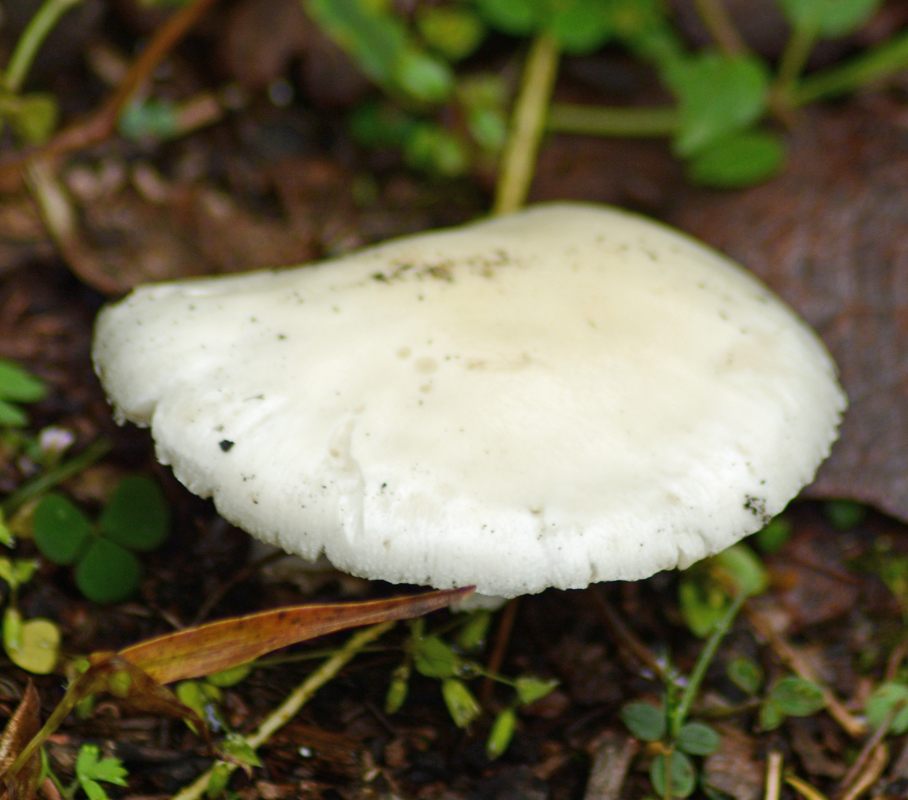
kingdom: Fungi
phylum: Basidiomycota
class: Agaricomycetes
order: Agaricales
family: Amanitaceae
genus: Amanita
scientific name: Amanita bisporigera
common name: Eastern north american destroying angel
